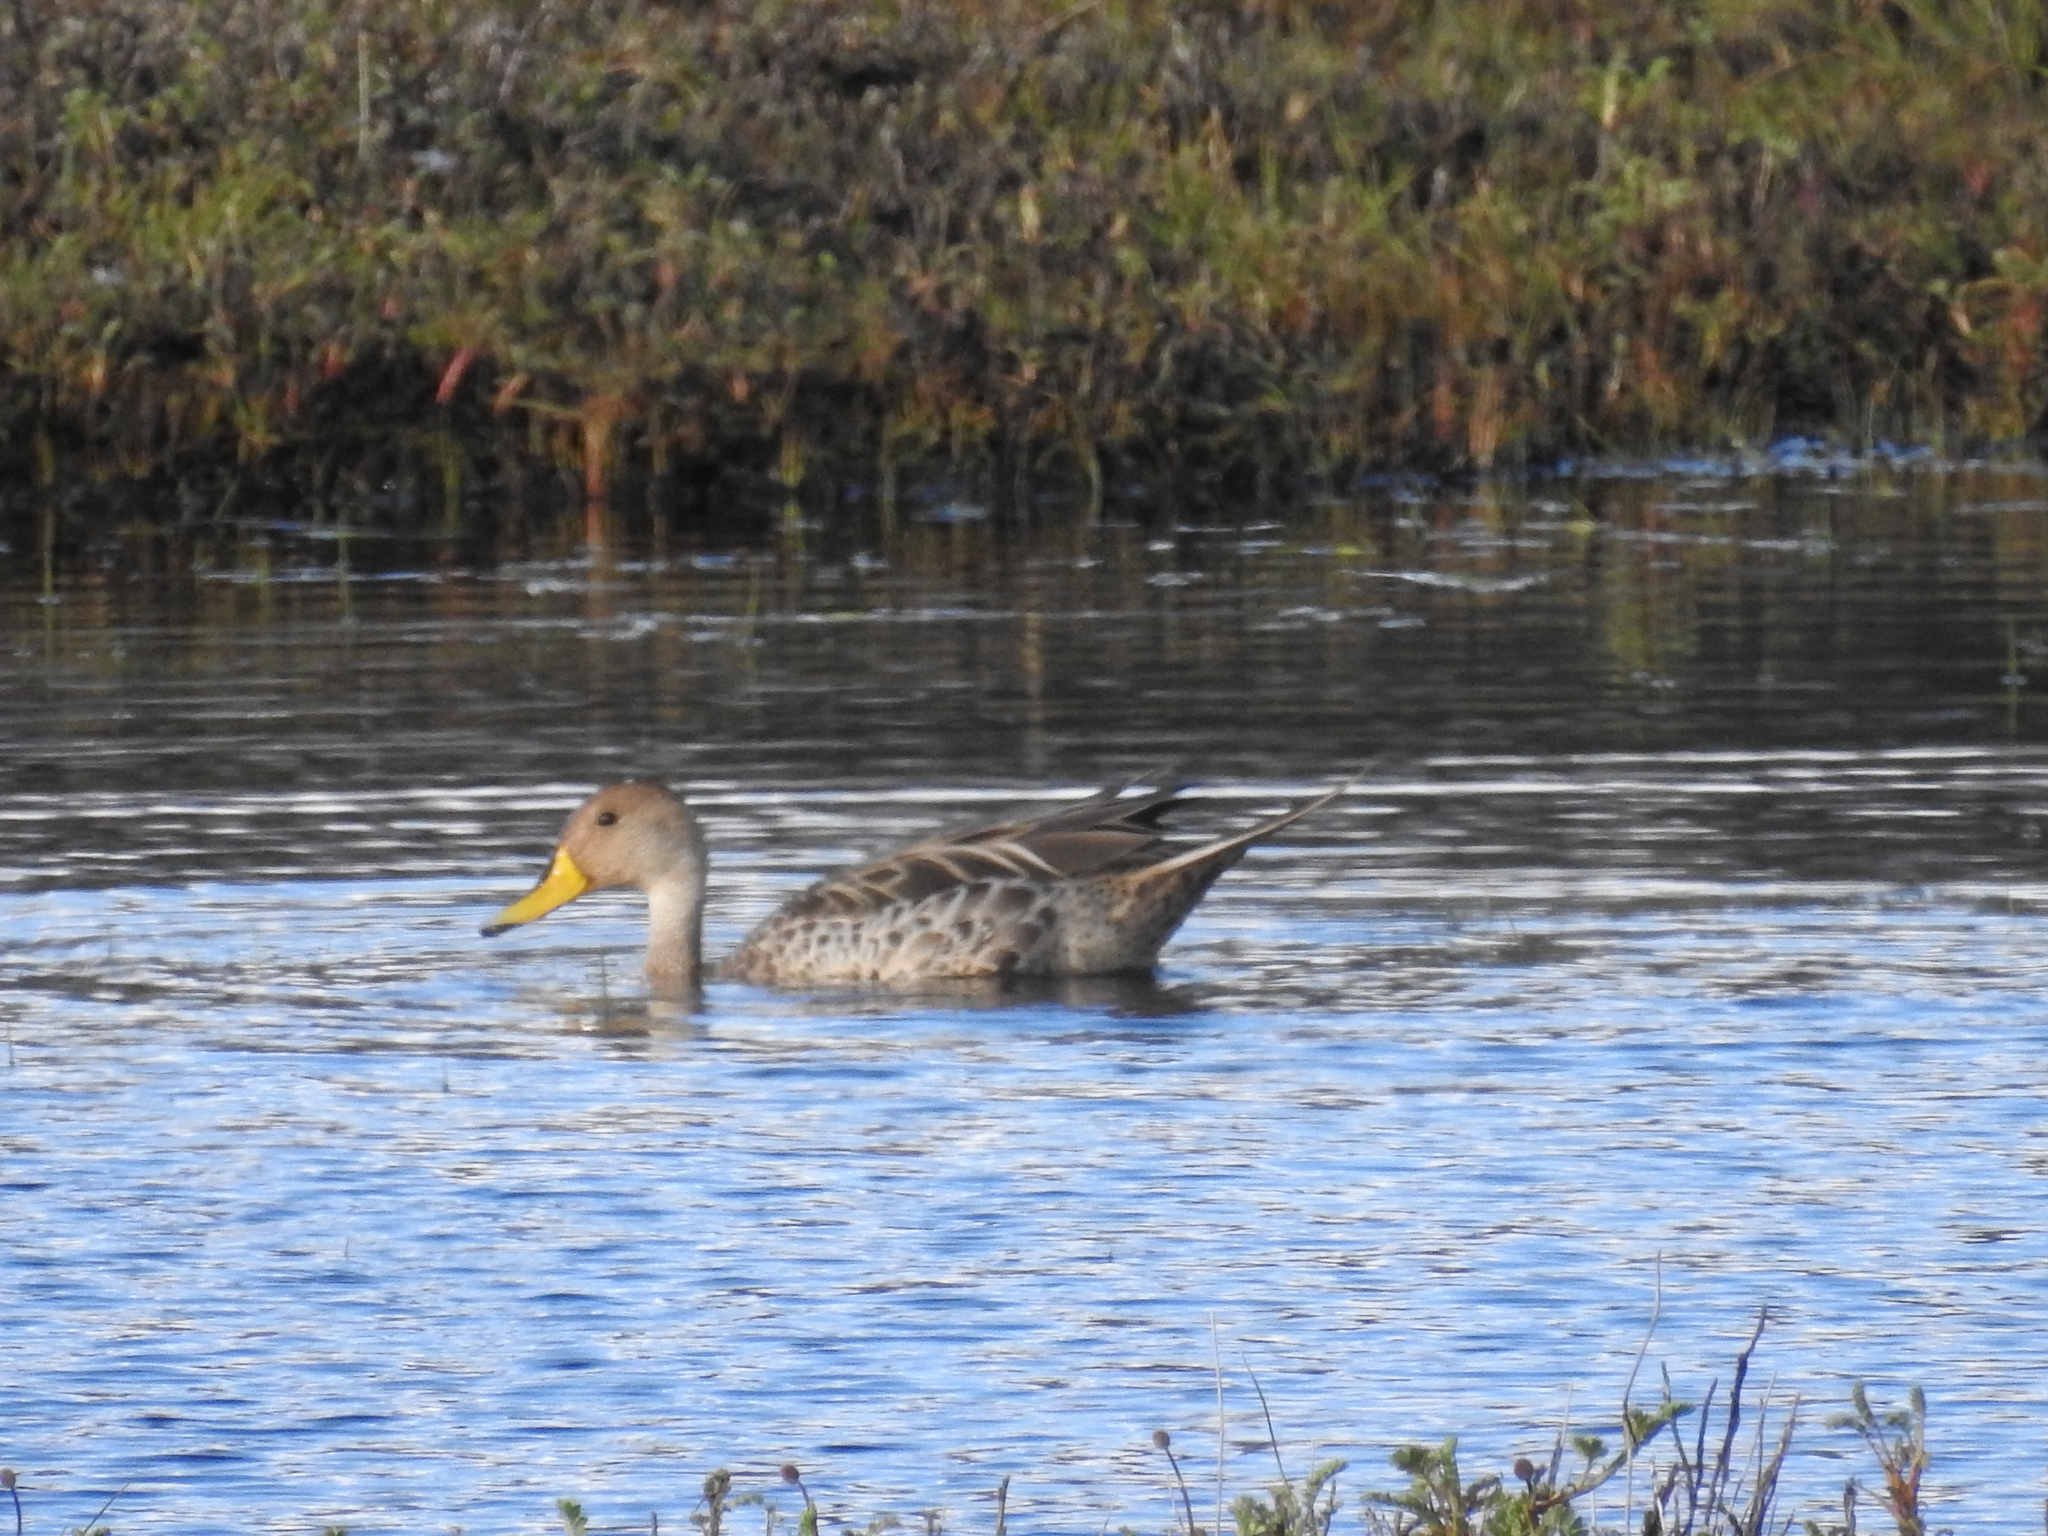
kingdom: Animalia
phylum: Chordata
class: Aves
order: Anseriformes
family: Anatidae
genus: Anas
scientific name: Anas georgica
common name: Yellow-billed pintail
